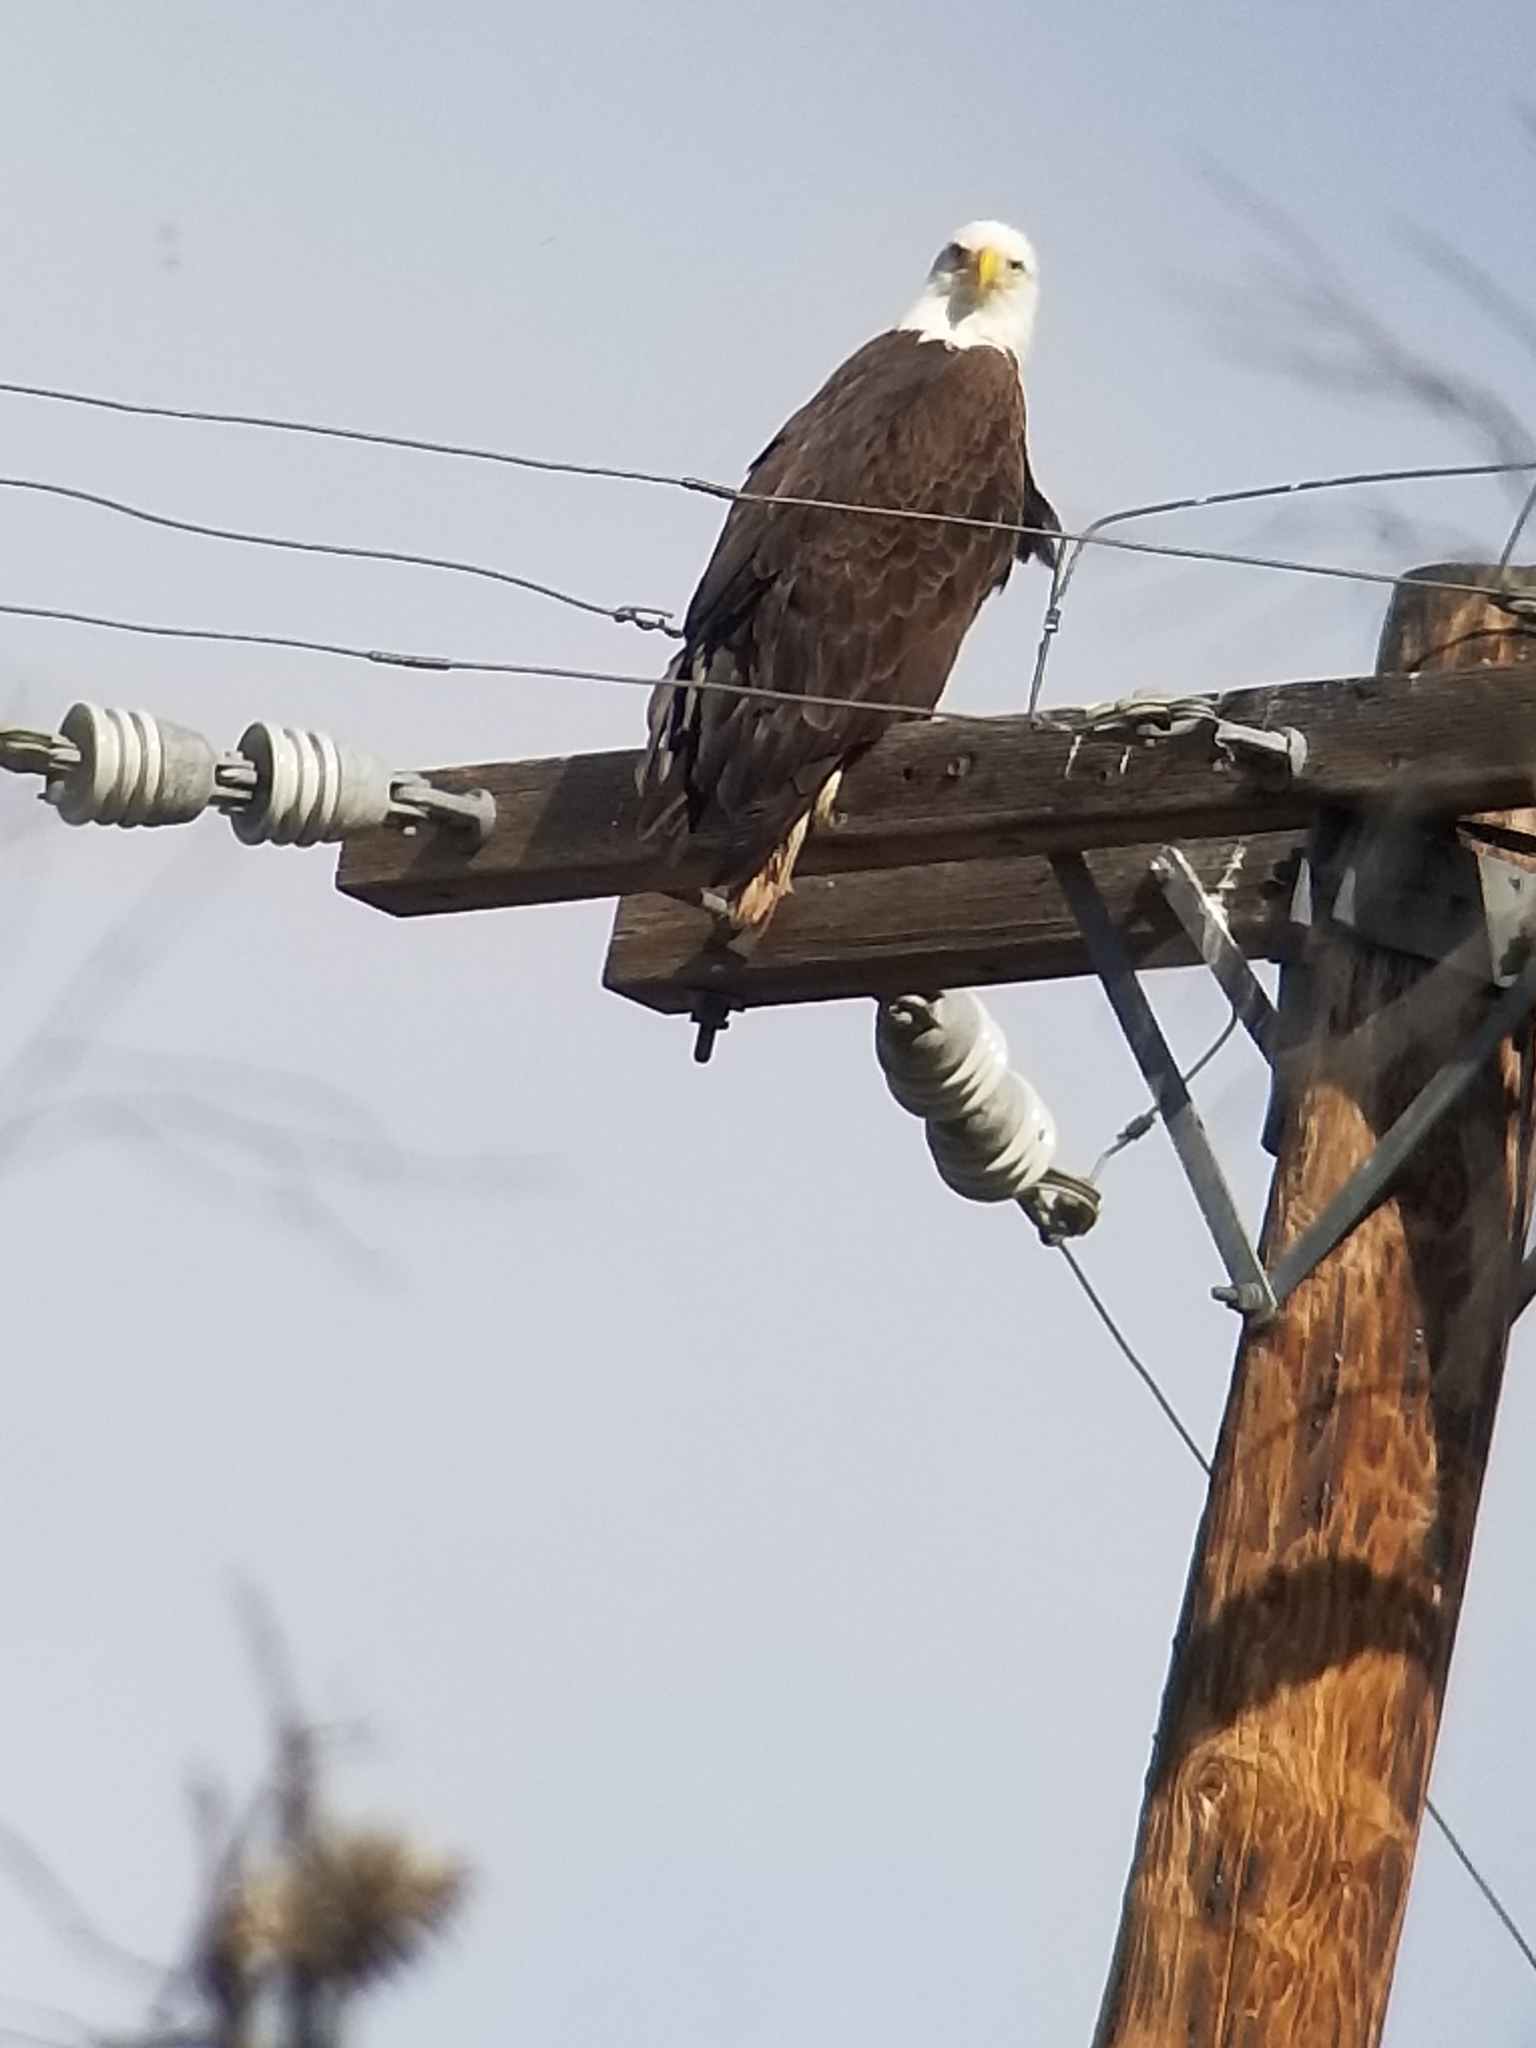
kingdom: Animalia
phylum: Chordata
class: Aves
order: Accipitriformes
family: Accipitridae
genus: Haliaeetus
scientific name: Haliaeetus leucocephalus
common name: Bald eagle
